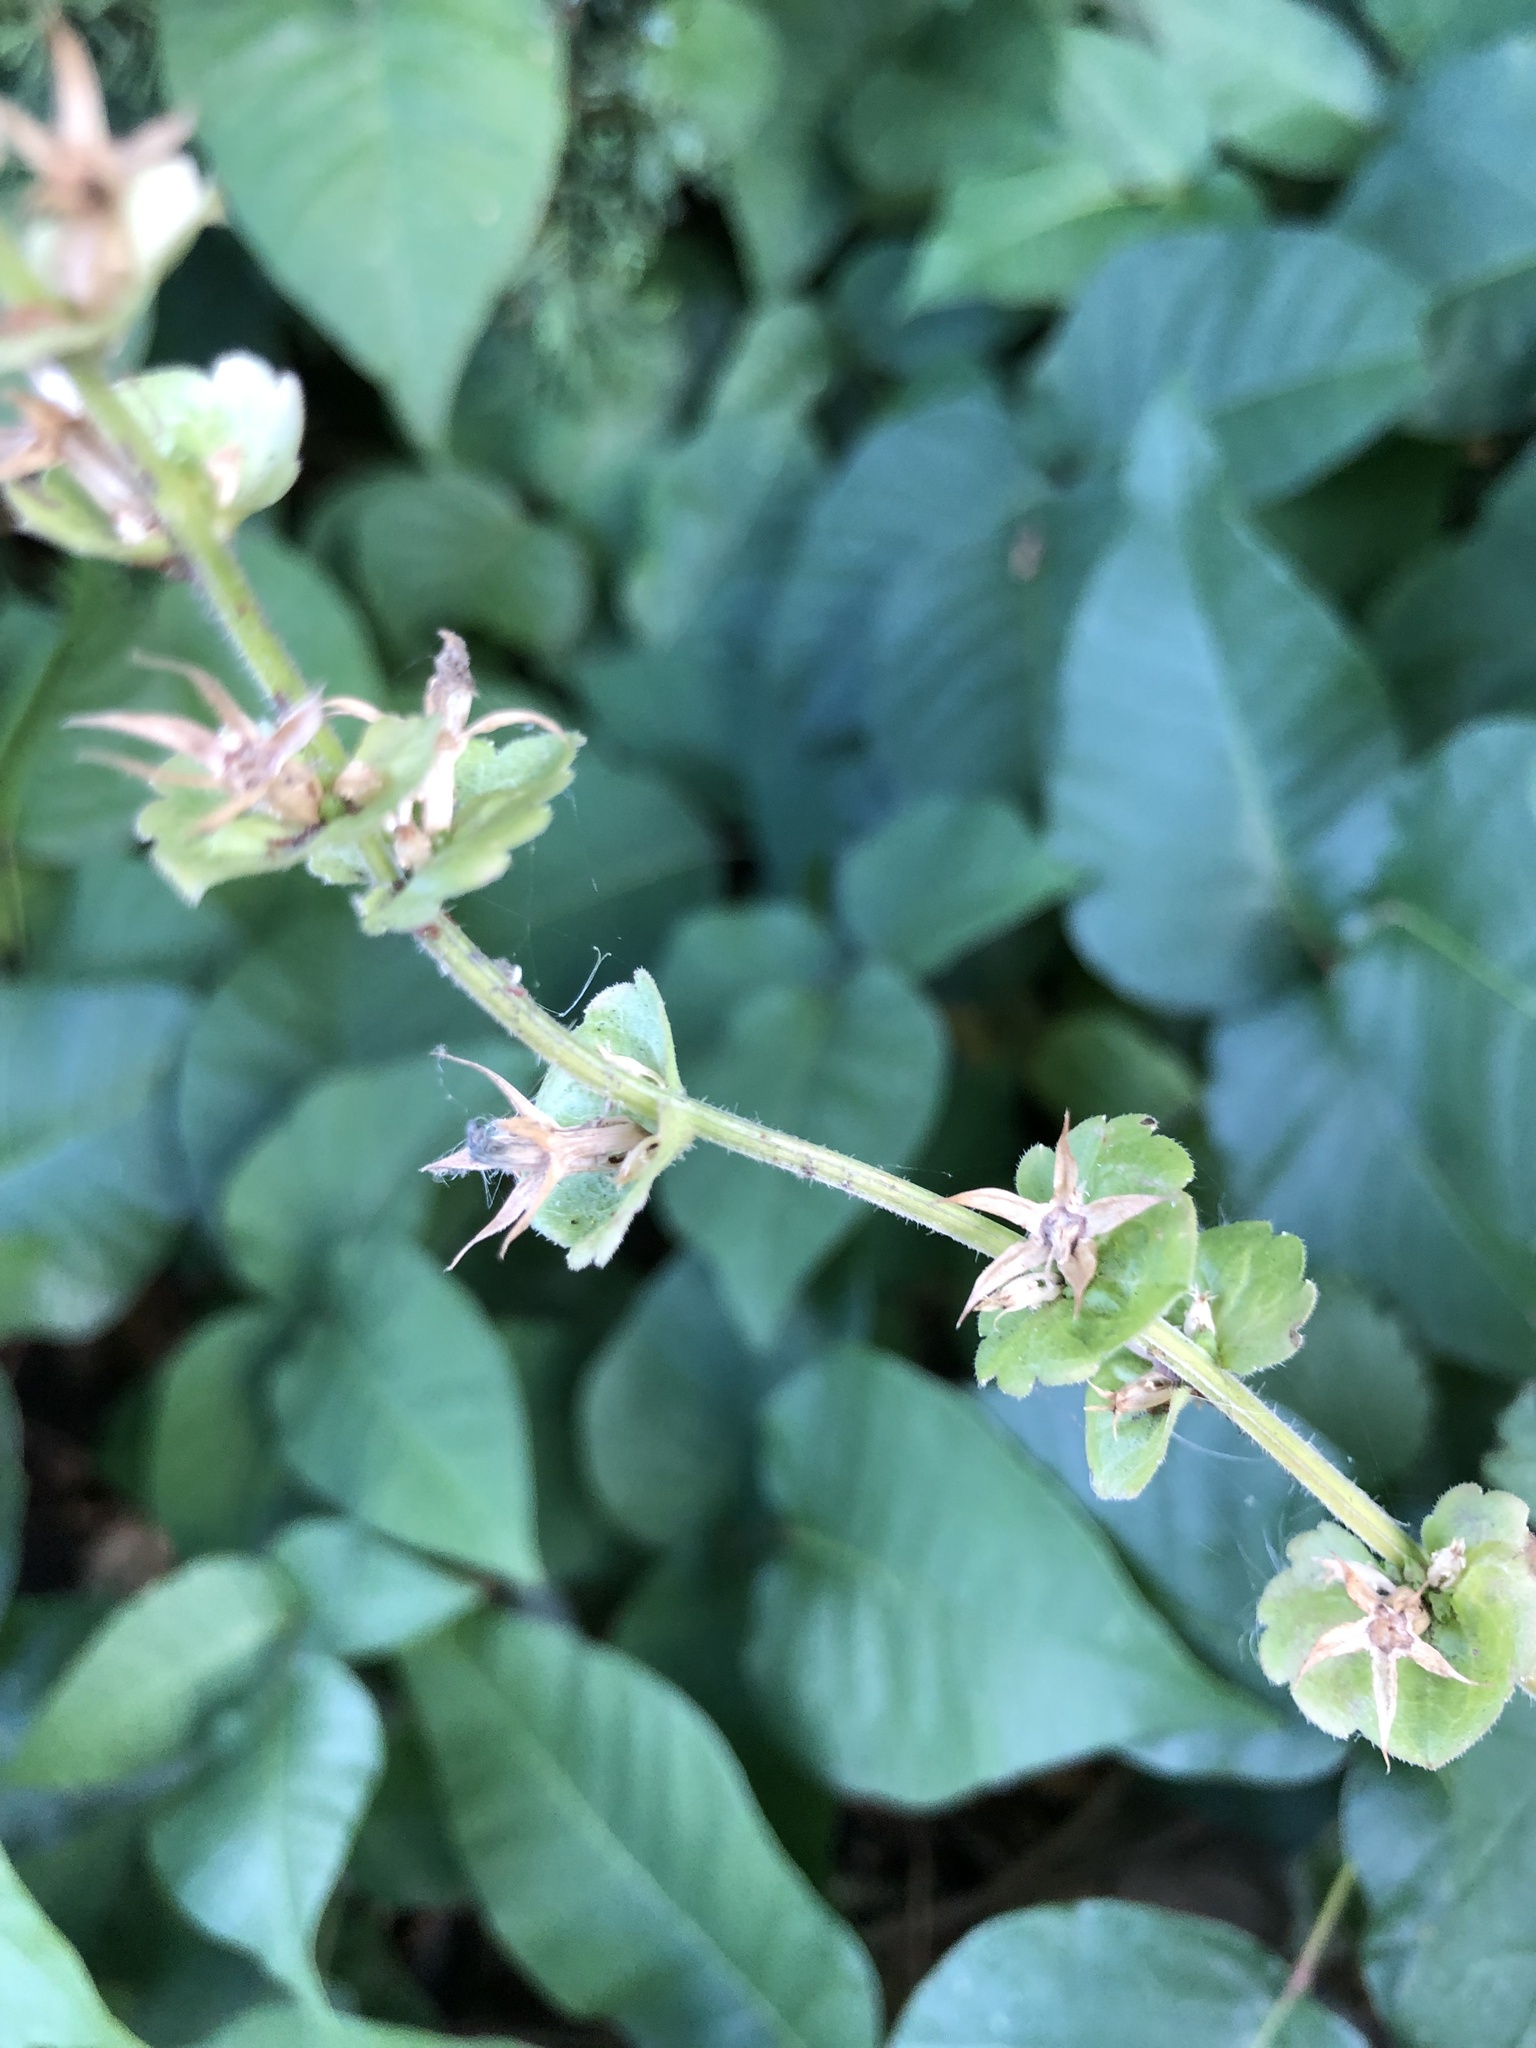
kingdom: Plantae
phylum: Tracheophyta
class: Magnoliopsida
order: Asterales
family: Campanulaceae
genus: Triodanis
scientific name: Triodanis perfoliata
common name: Clasping venus' looking-glass
